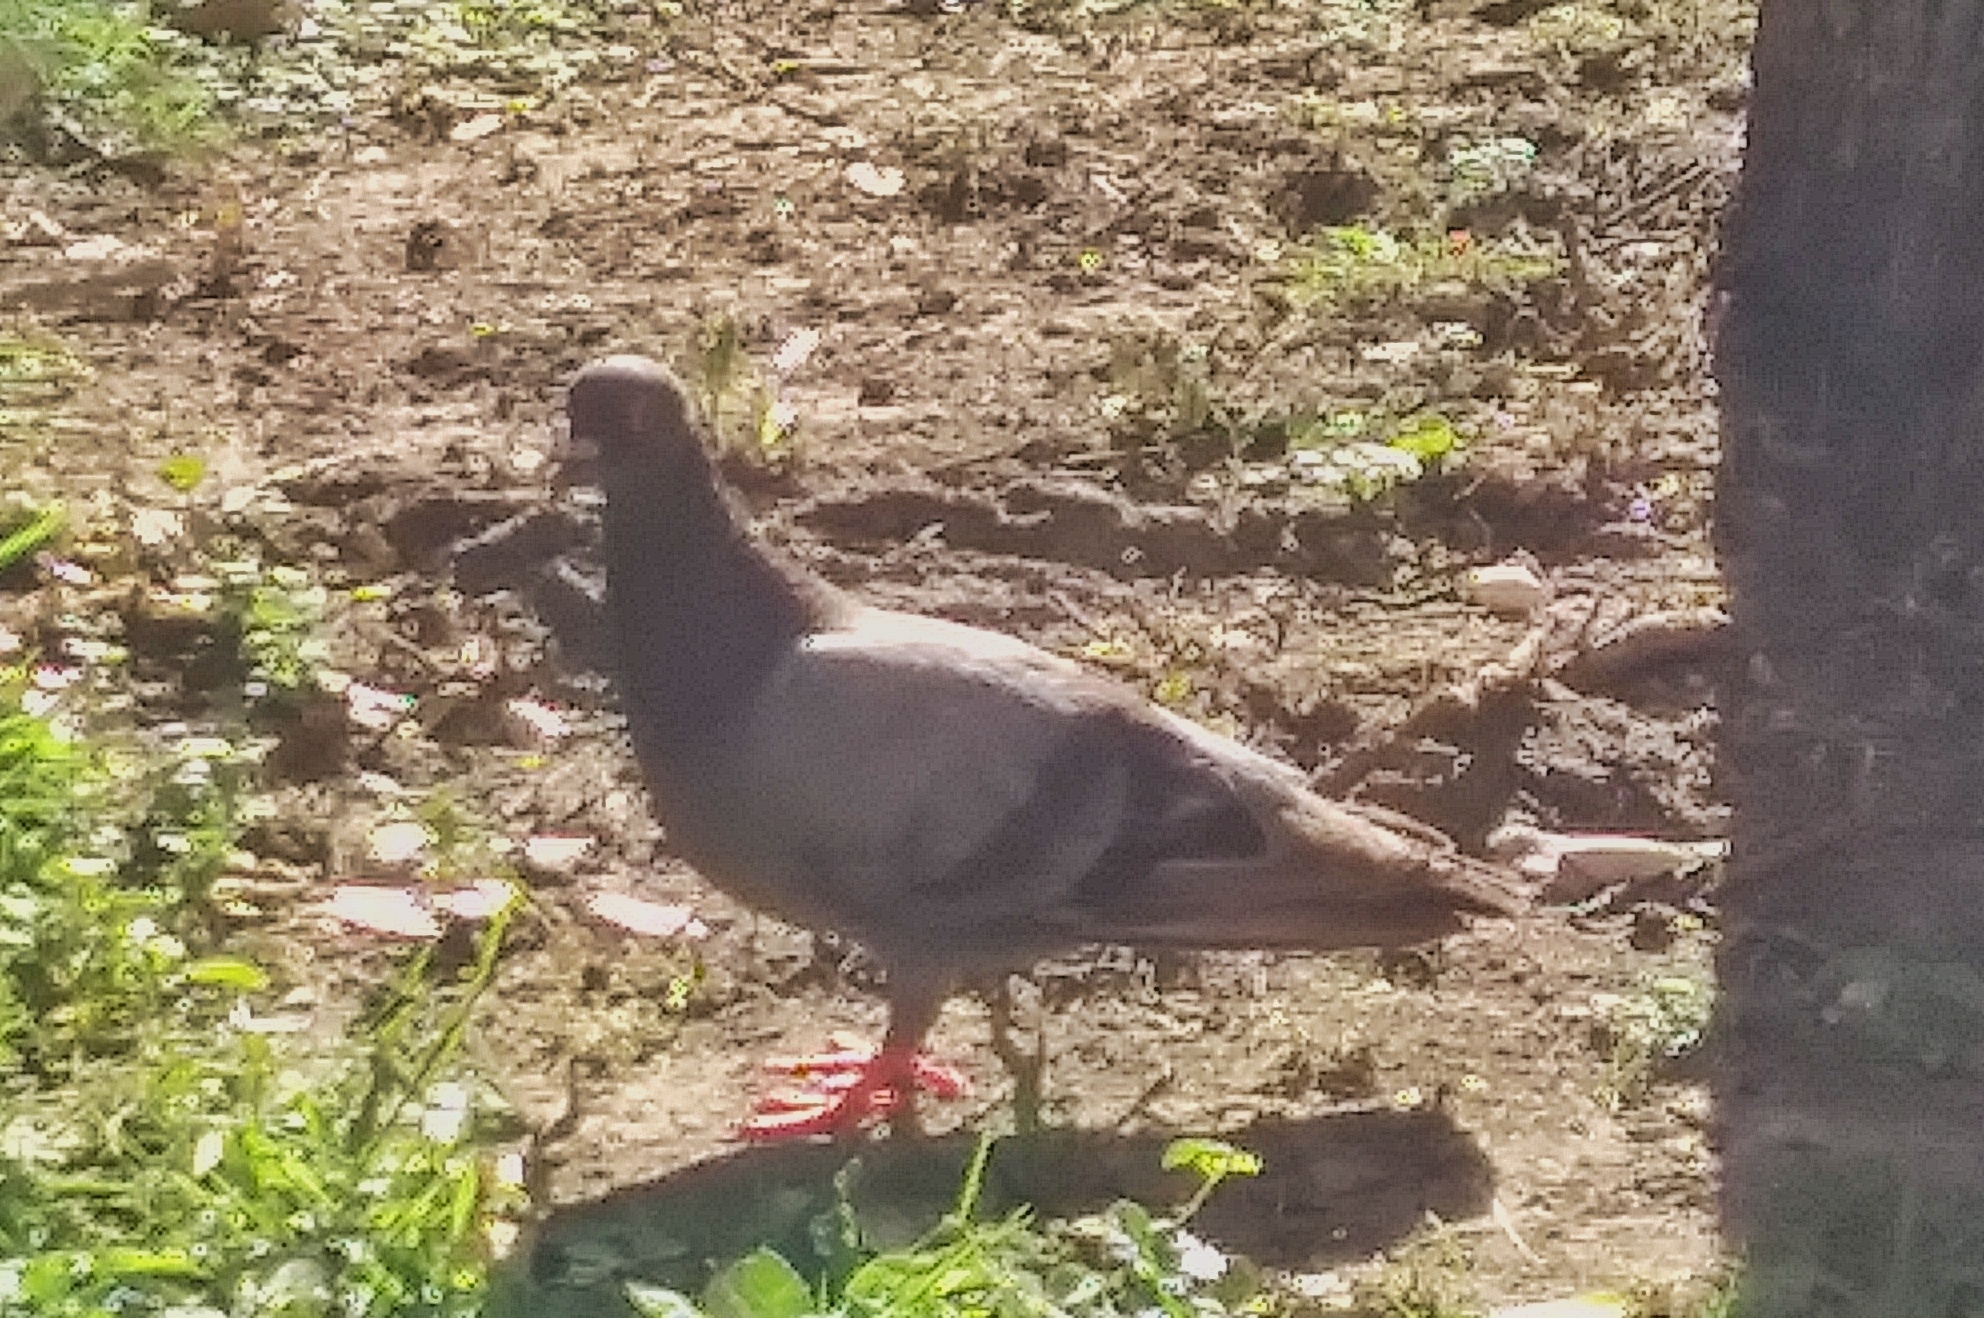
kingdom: Animalia
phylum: Chordata
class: Aves
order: Columbiformes
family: Columbidae
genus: Columba
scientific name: Columba livia
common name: Rock pigeon
